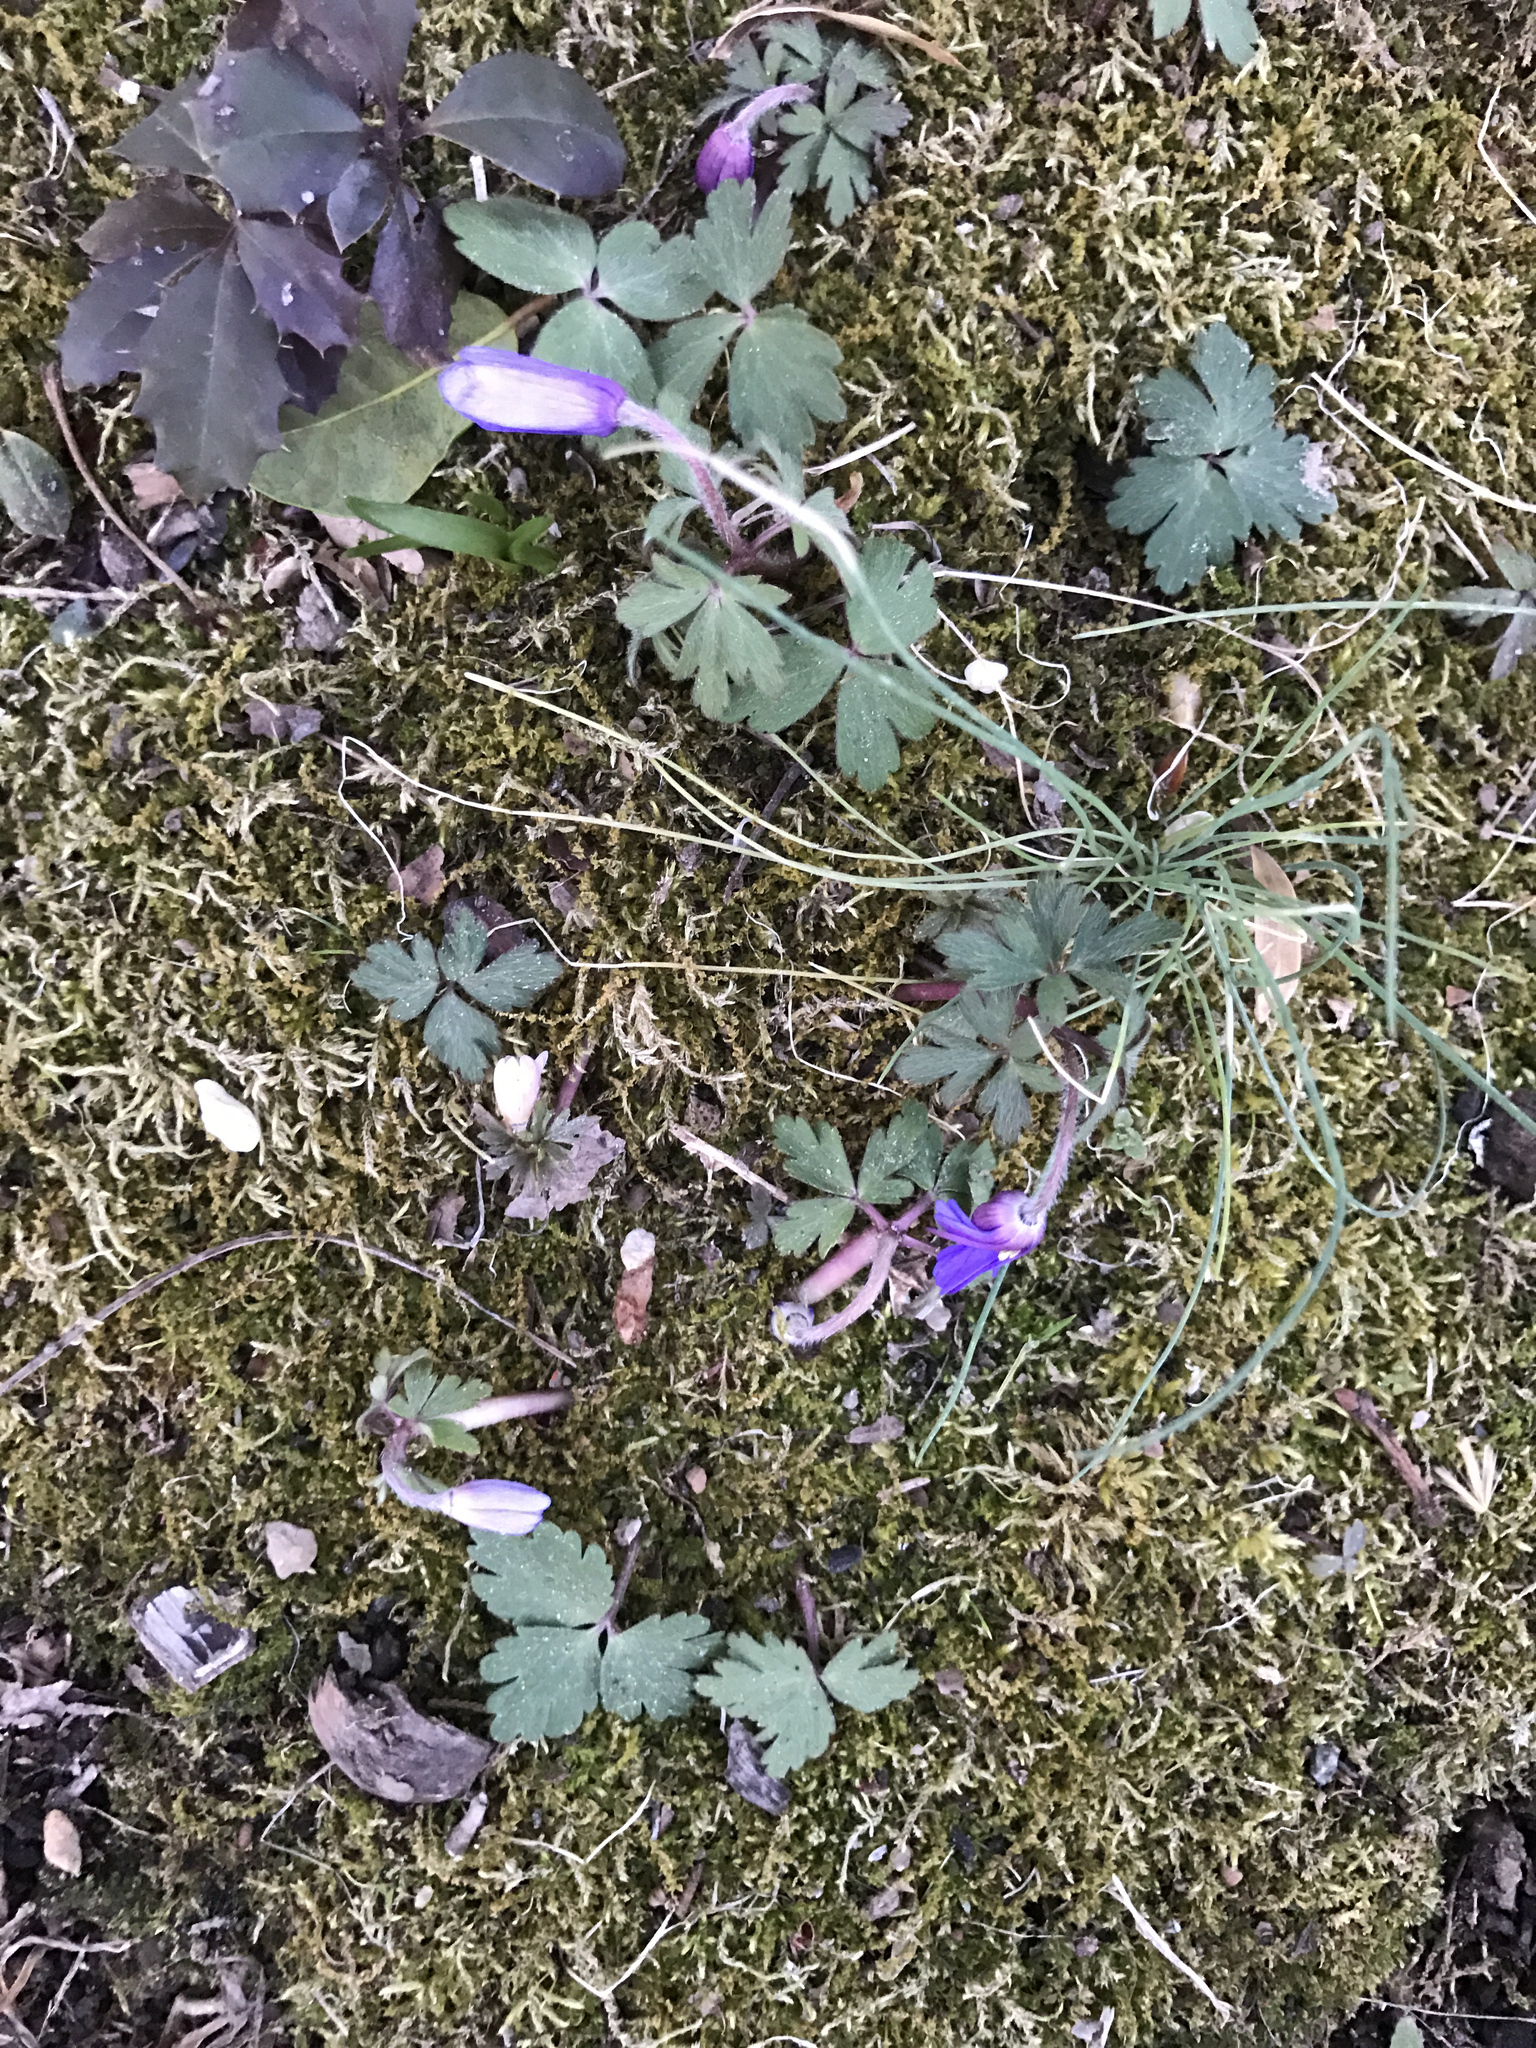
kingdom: Plantae
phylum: Tracheophyta
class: Magnoliopsida
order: Ranunculales
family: Ranunculaceae
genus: Anemone
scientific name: Anemone blanda
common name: Balkan anemone
